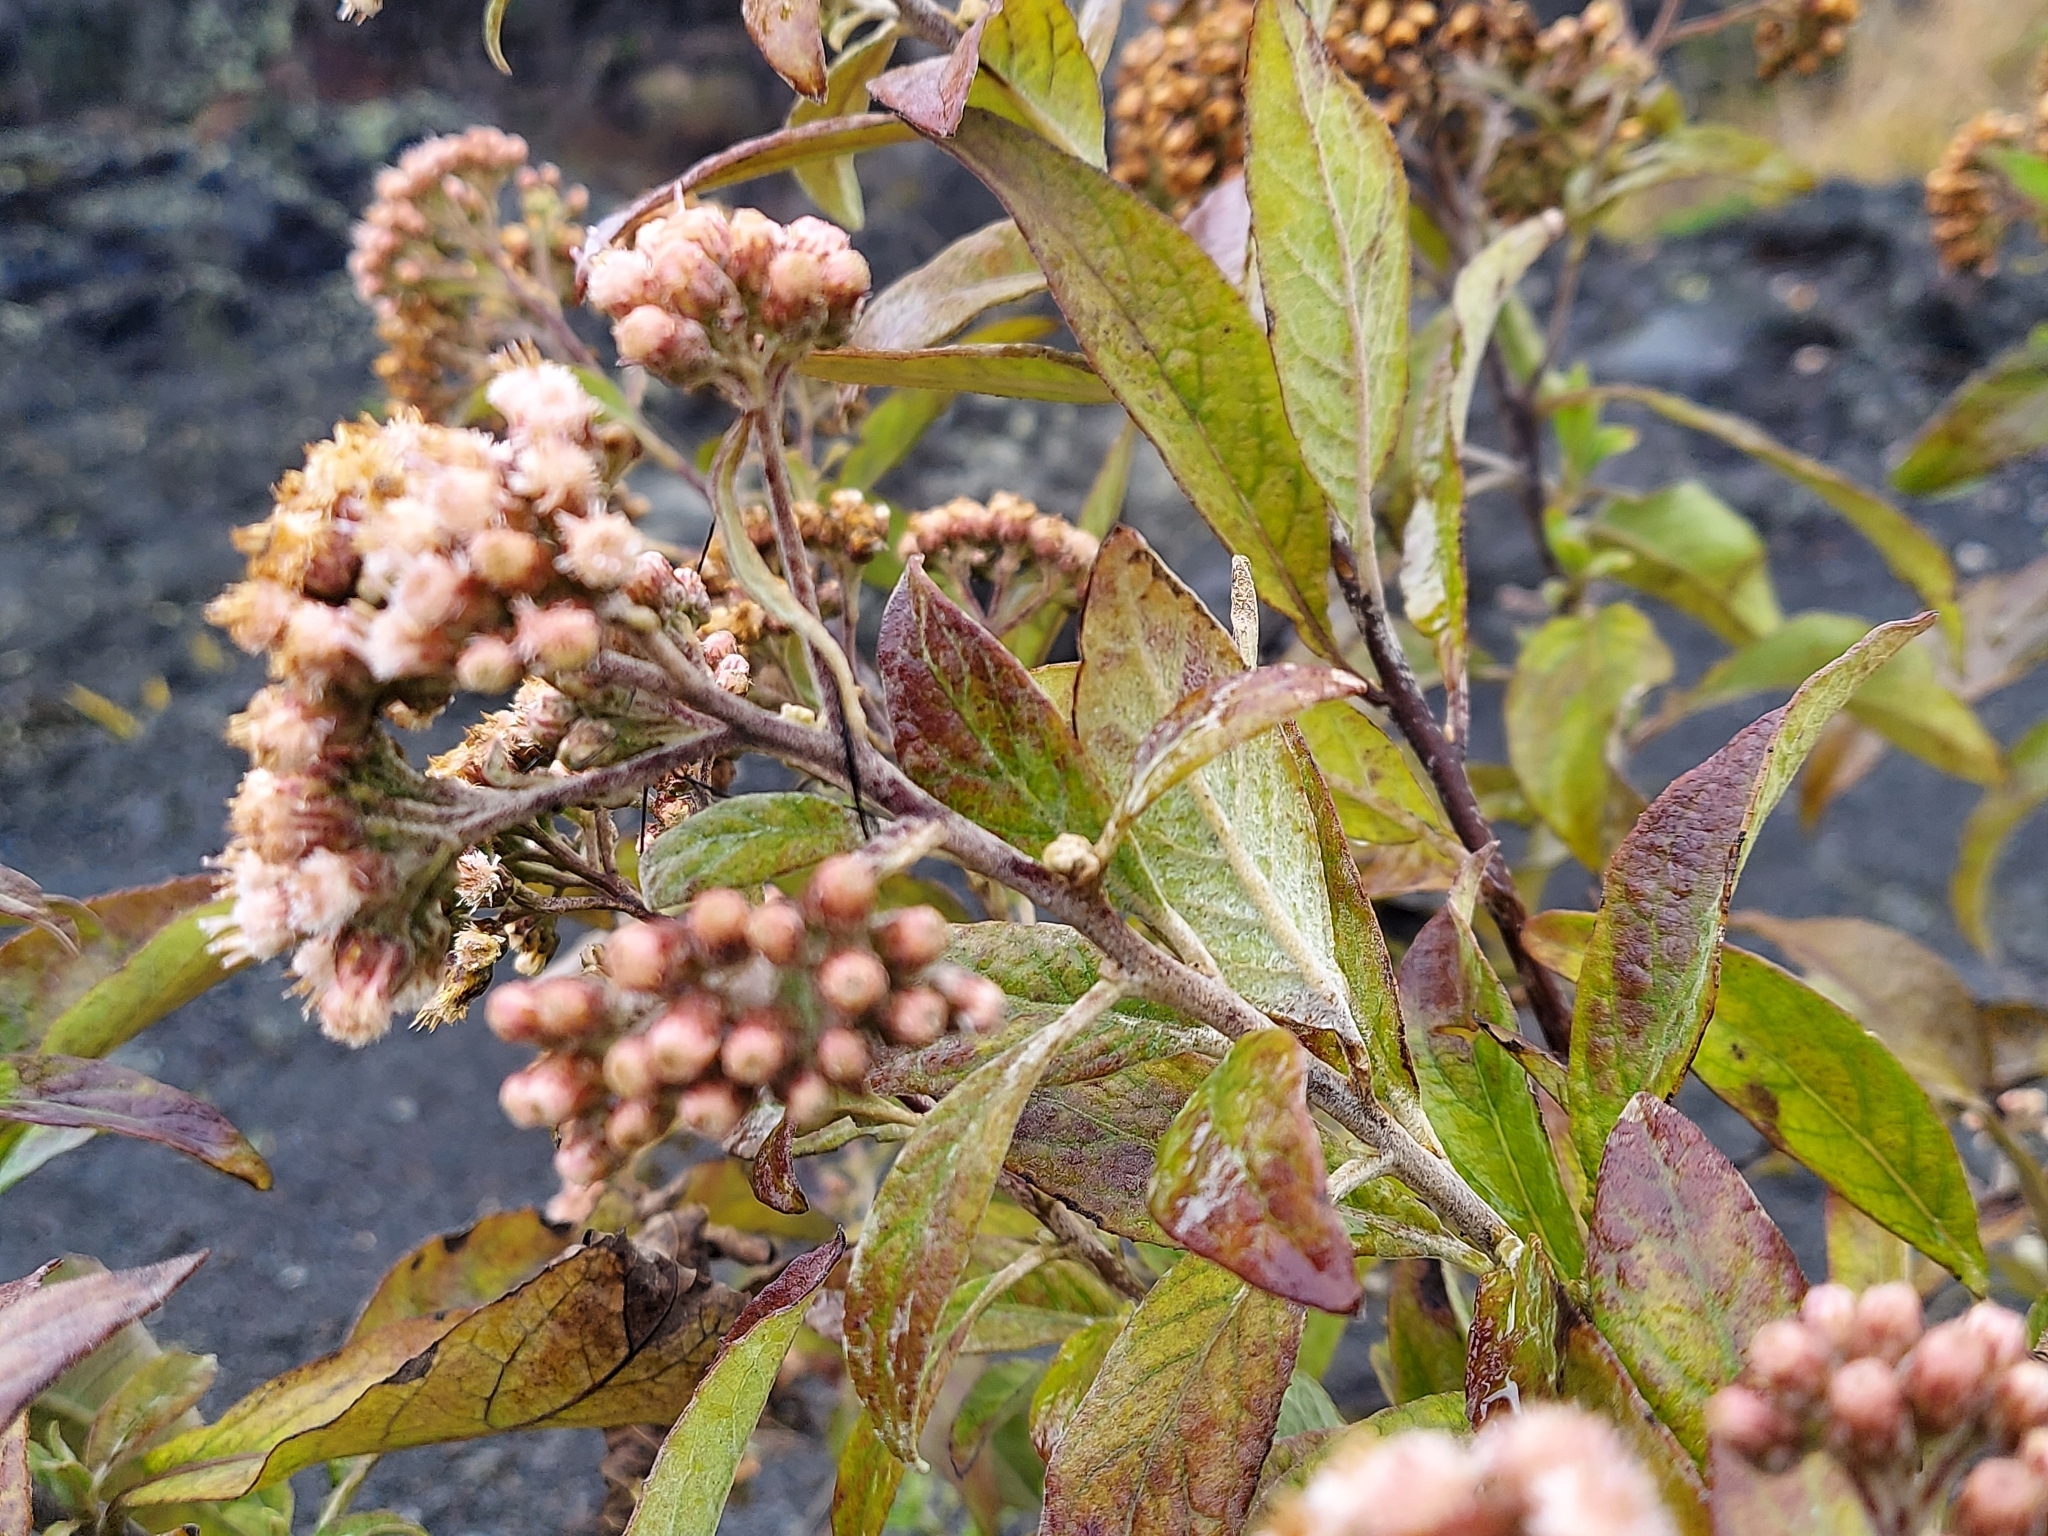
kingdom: Plantae
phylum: Tracheophyta
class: Magnoliopsida
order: Asterales
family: Asteraceae
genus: Pluchea
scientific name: Pluchea carolinensis
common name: Marsh fleabane
